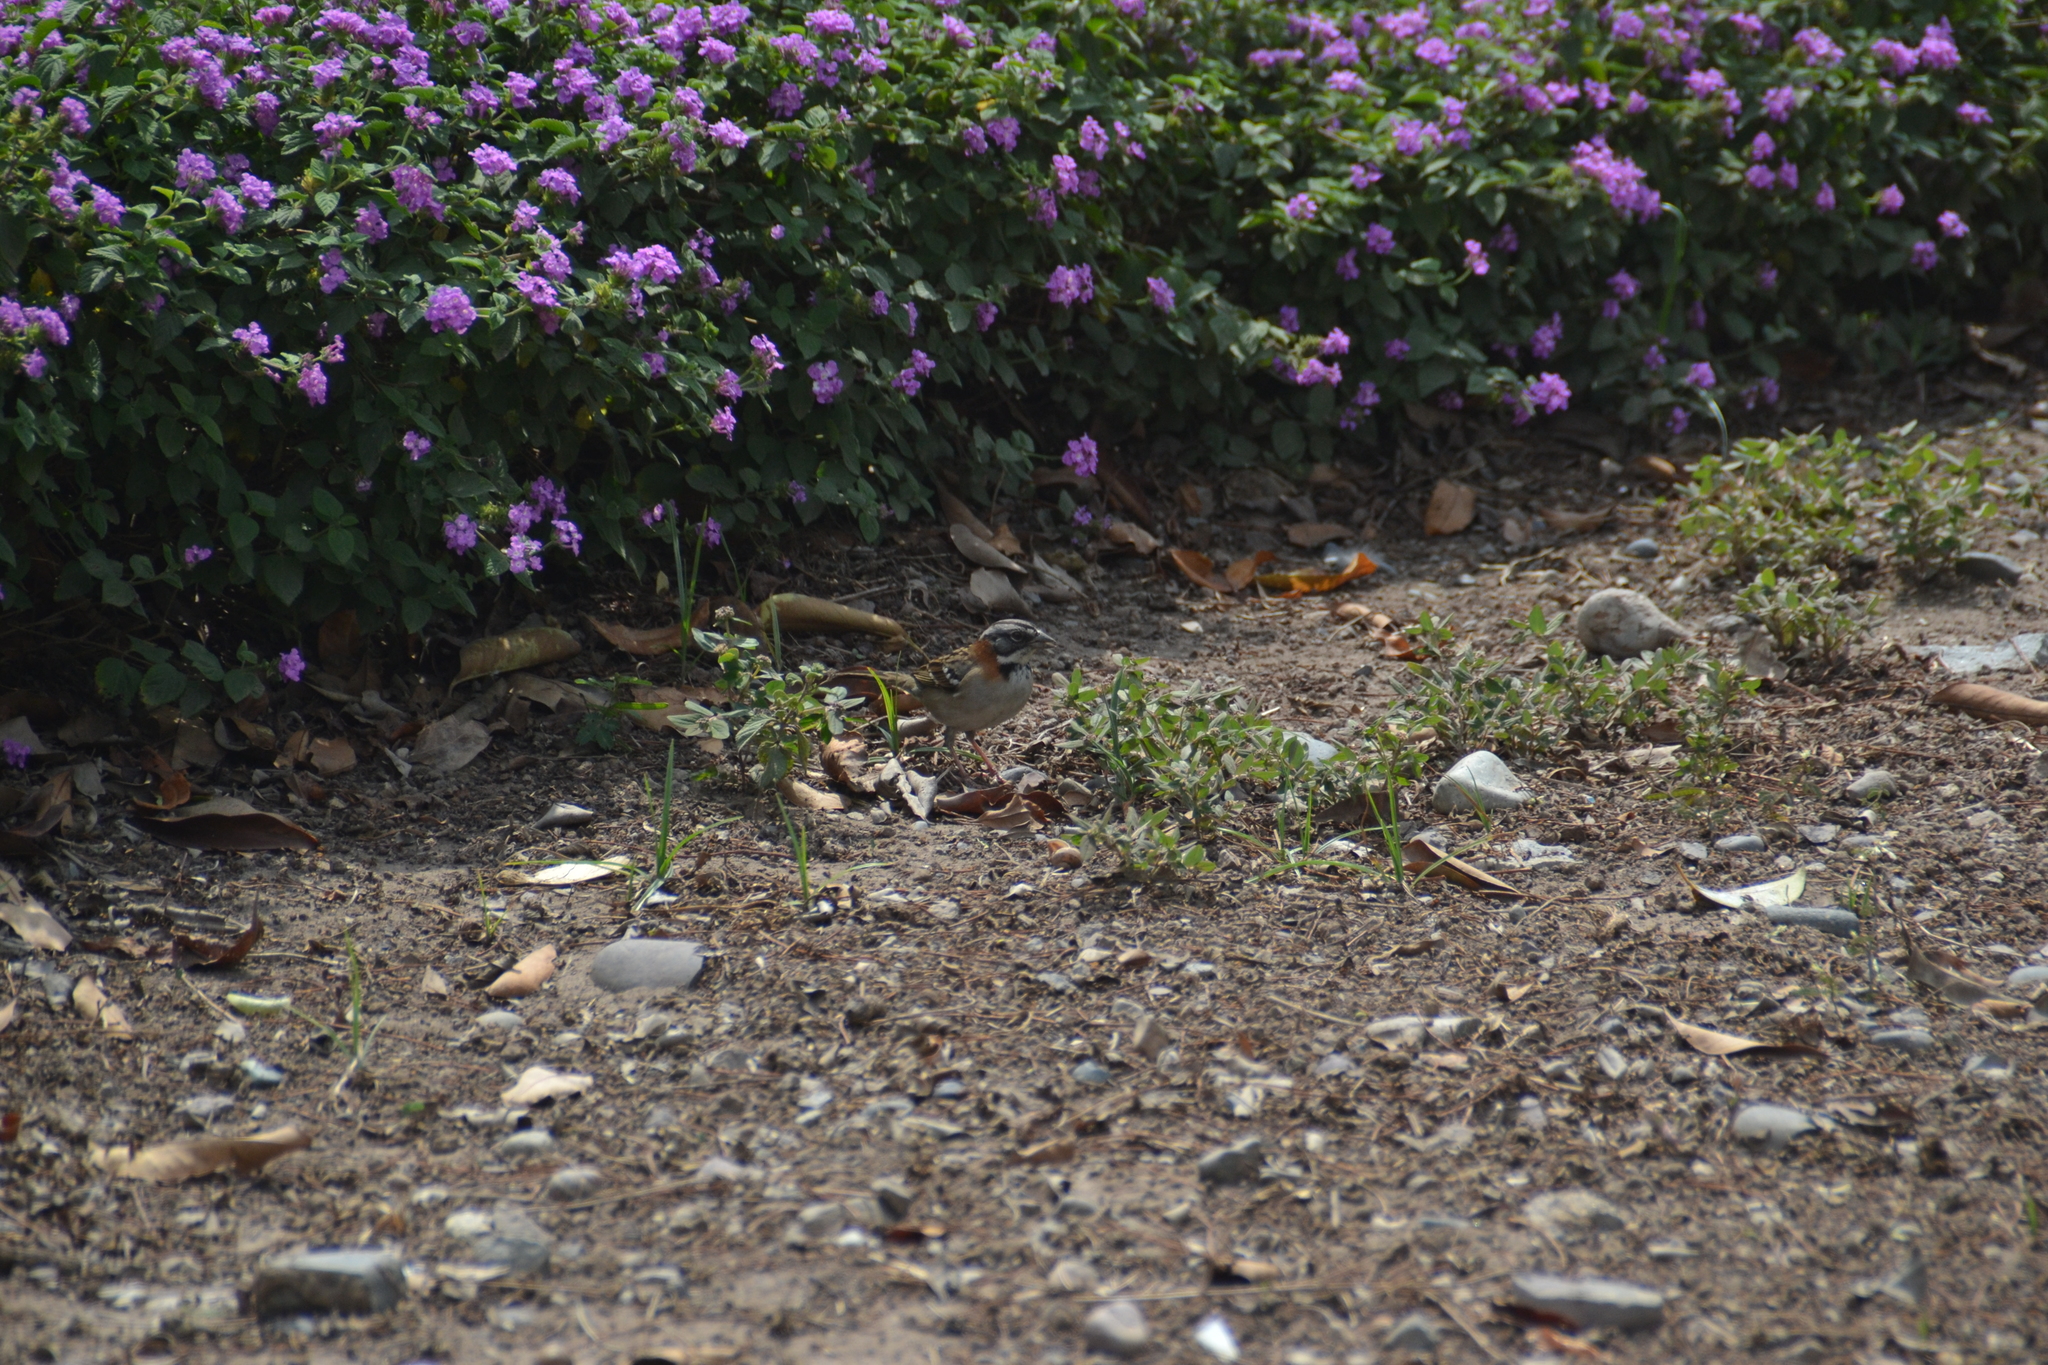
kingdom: Animalia
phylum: Chordata
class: Aves
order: Passeriformes
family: Passerellidae
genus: Zonotrichia
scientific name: Zonotrichia capensis
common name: Rufous-collared sparrow
